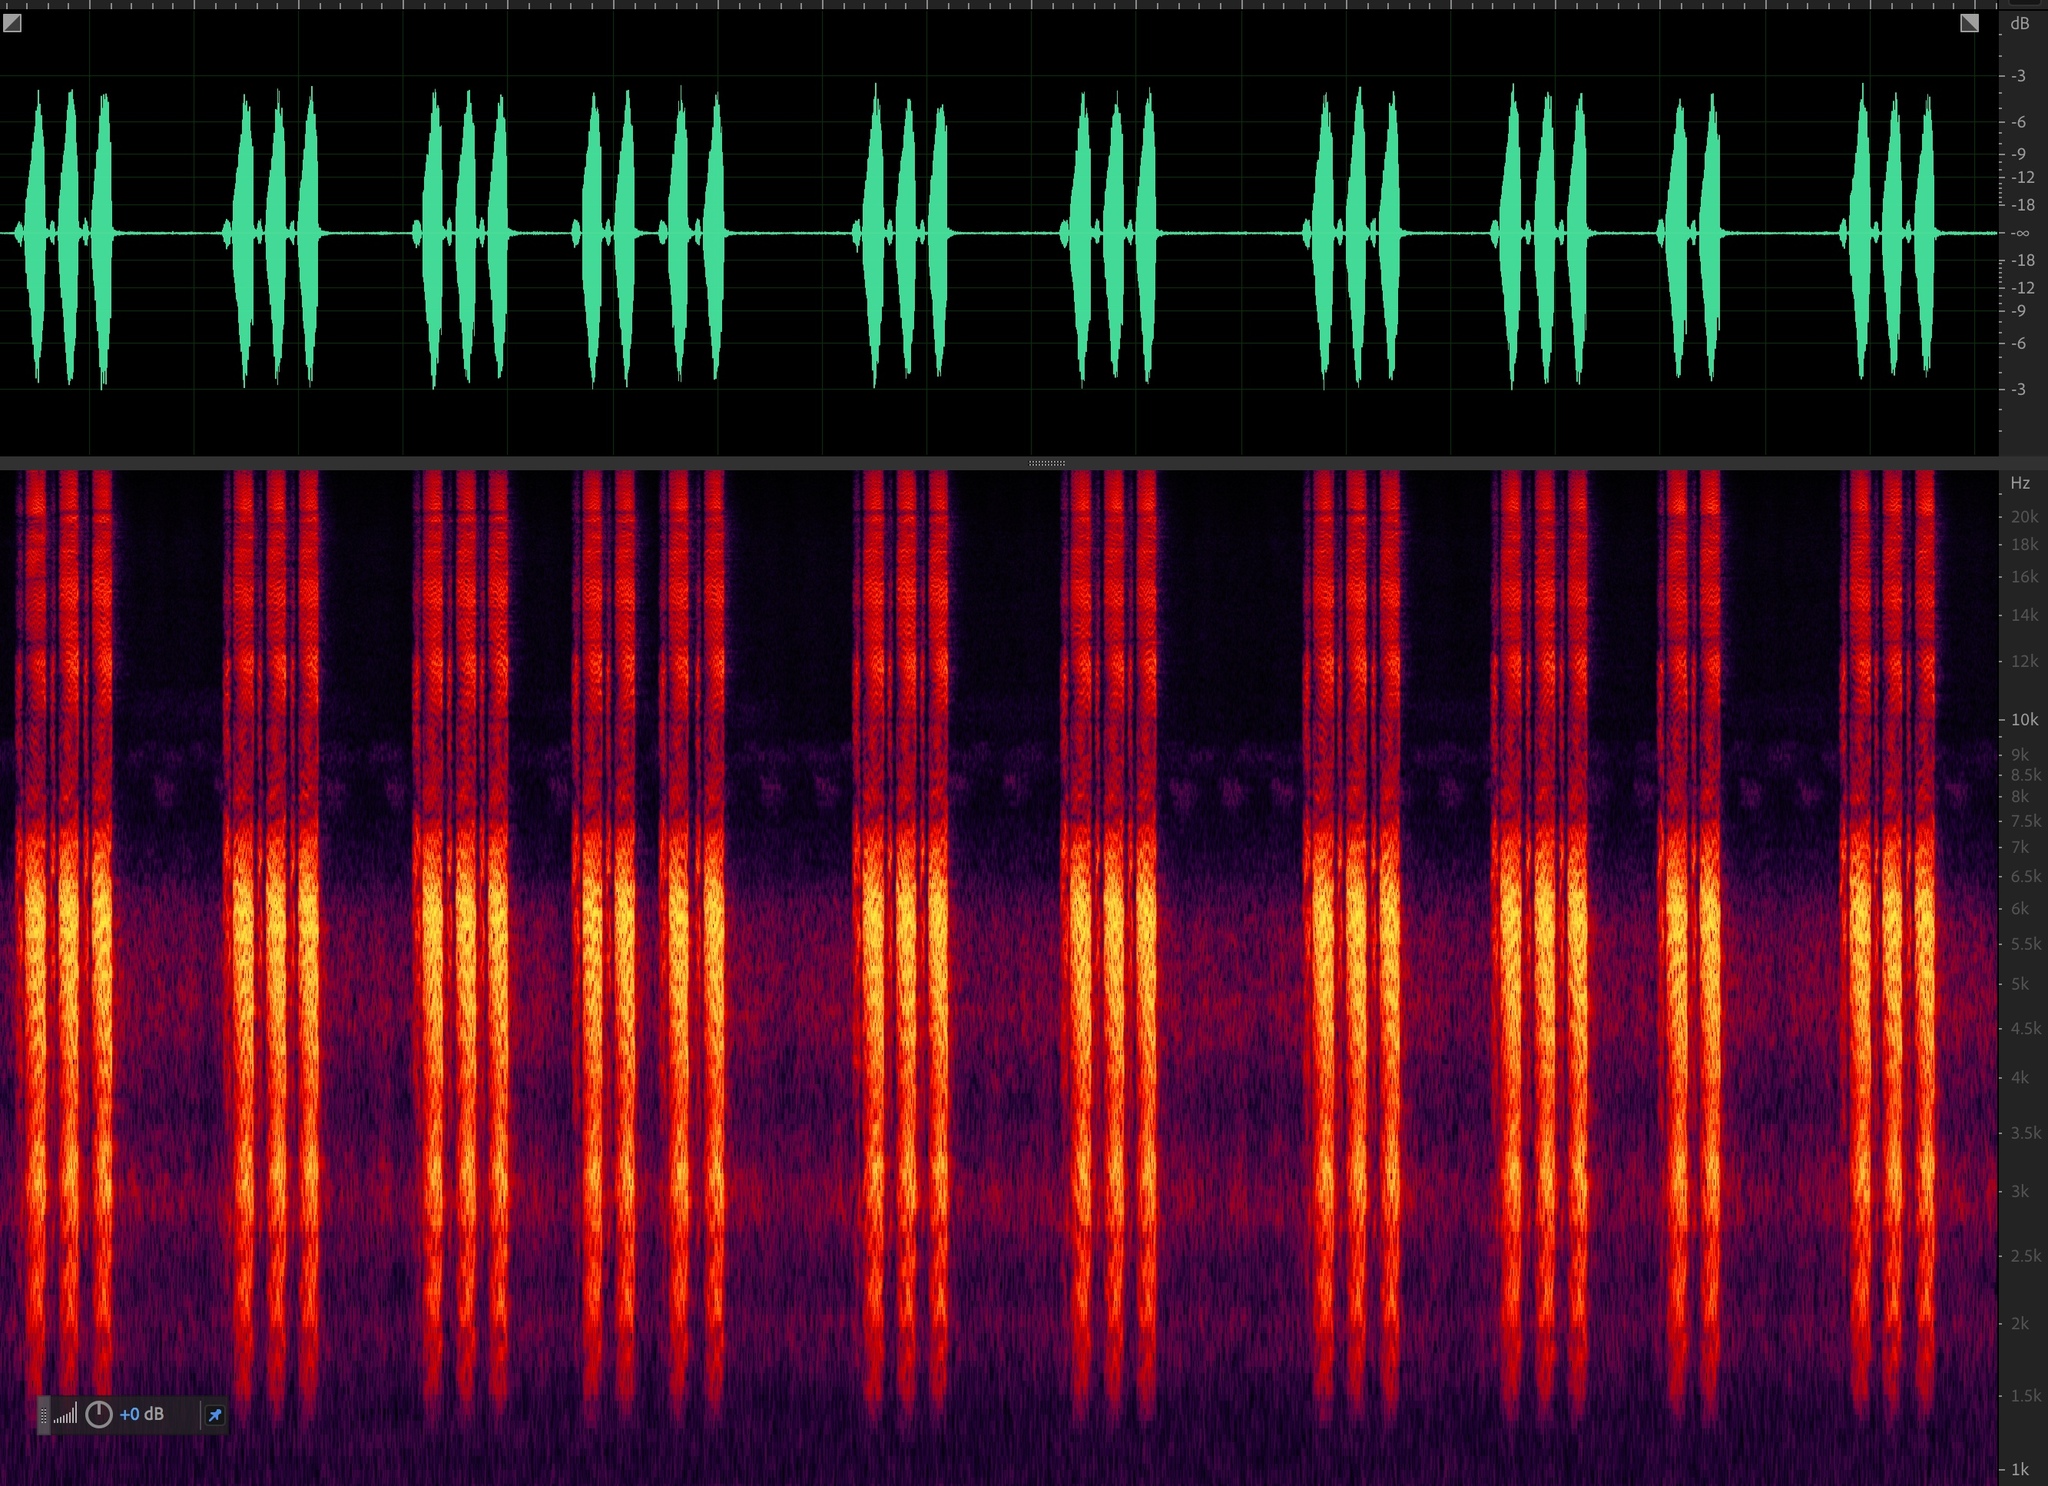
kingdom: Animalia
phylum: Arthropoda
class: Insecta
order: Orthoptera
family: Tettigoniidae
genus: Pterophylla
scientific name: Pterophylla camellifolia
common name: Common true katydid
